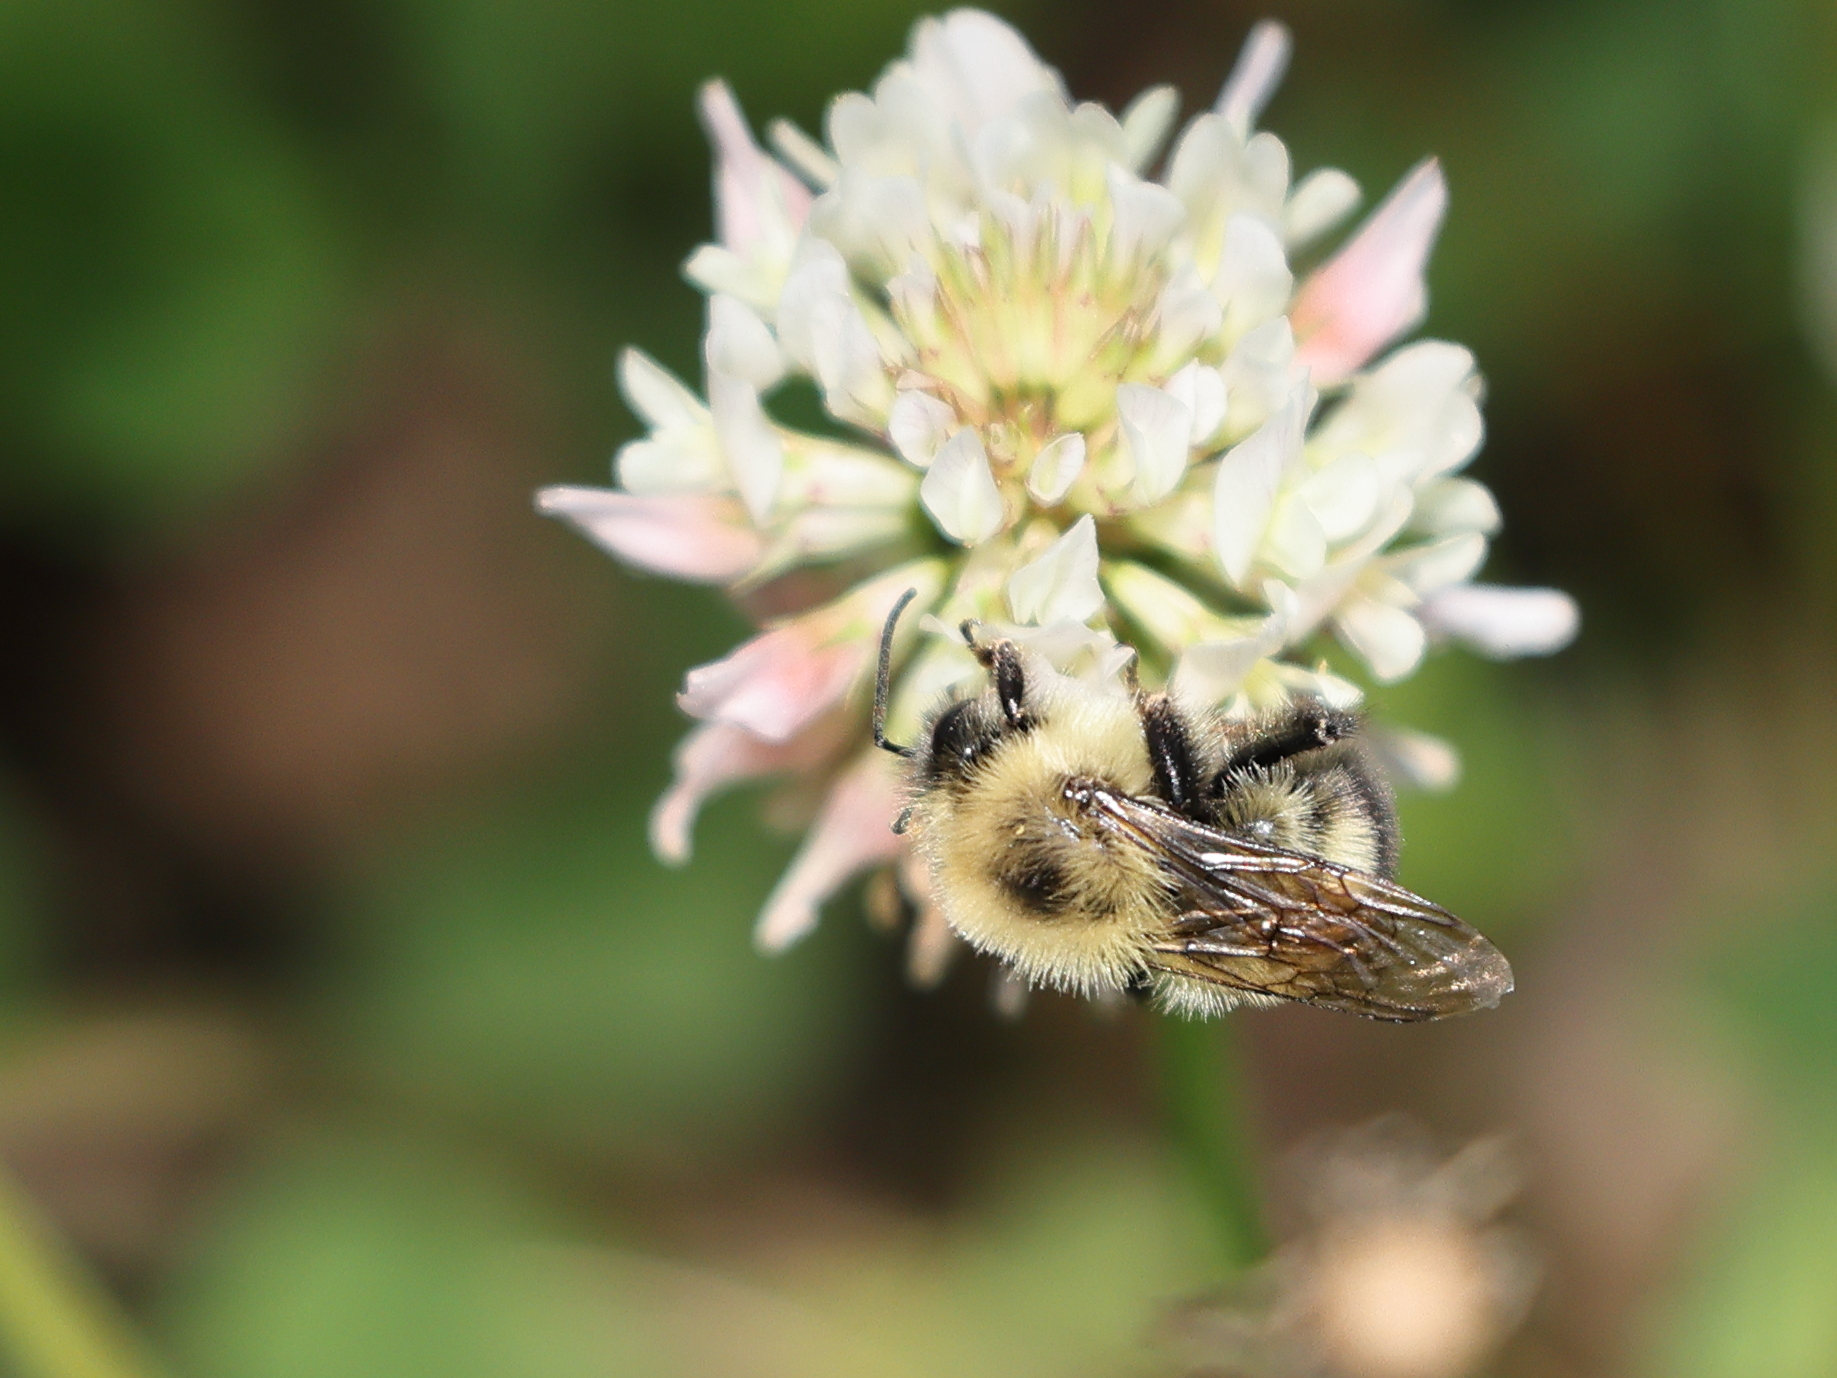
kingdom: Animalia
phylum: Arthropoda
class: Insecta
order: Hymenoptera
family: Apidae
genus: Bombus
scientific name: Bombus bimaculatus
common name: Two-spotted bumble bee
